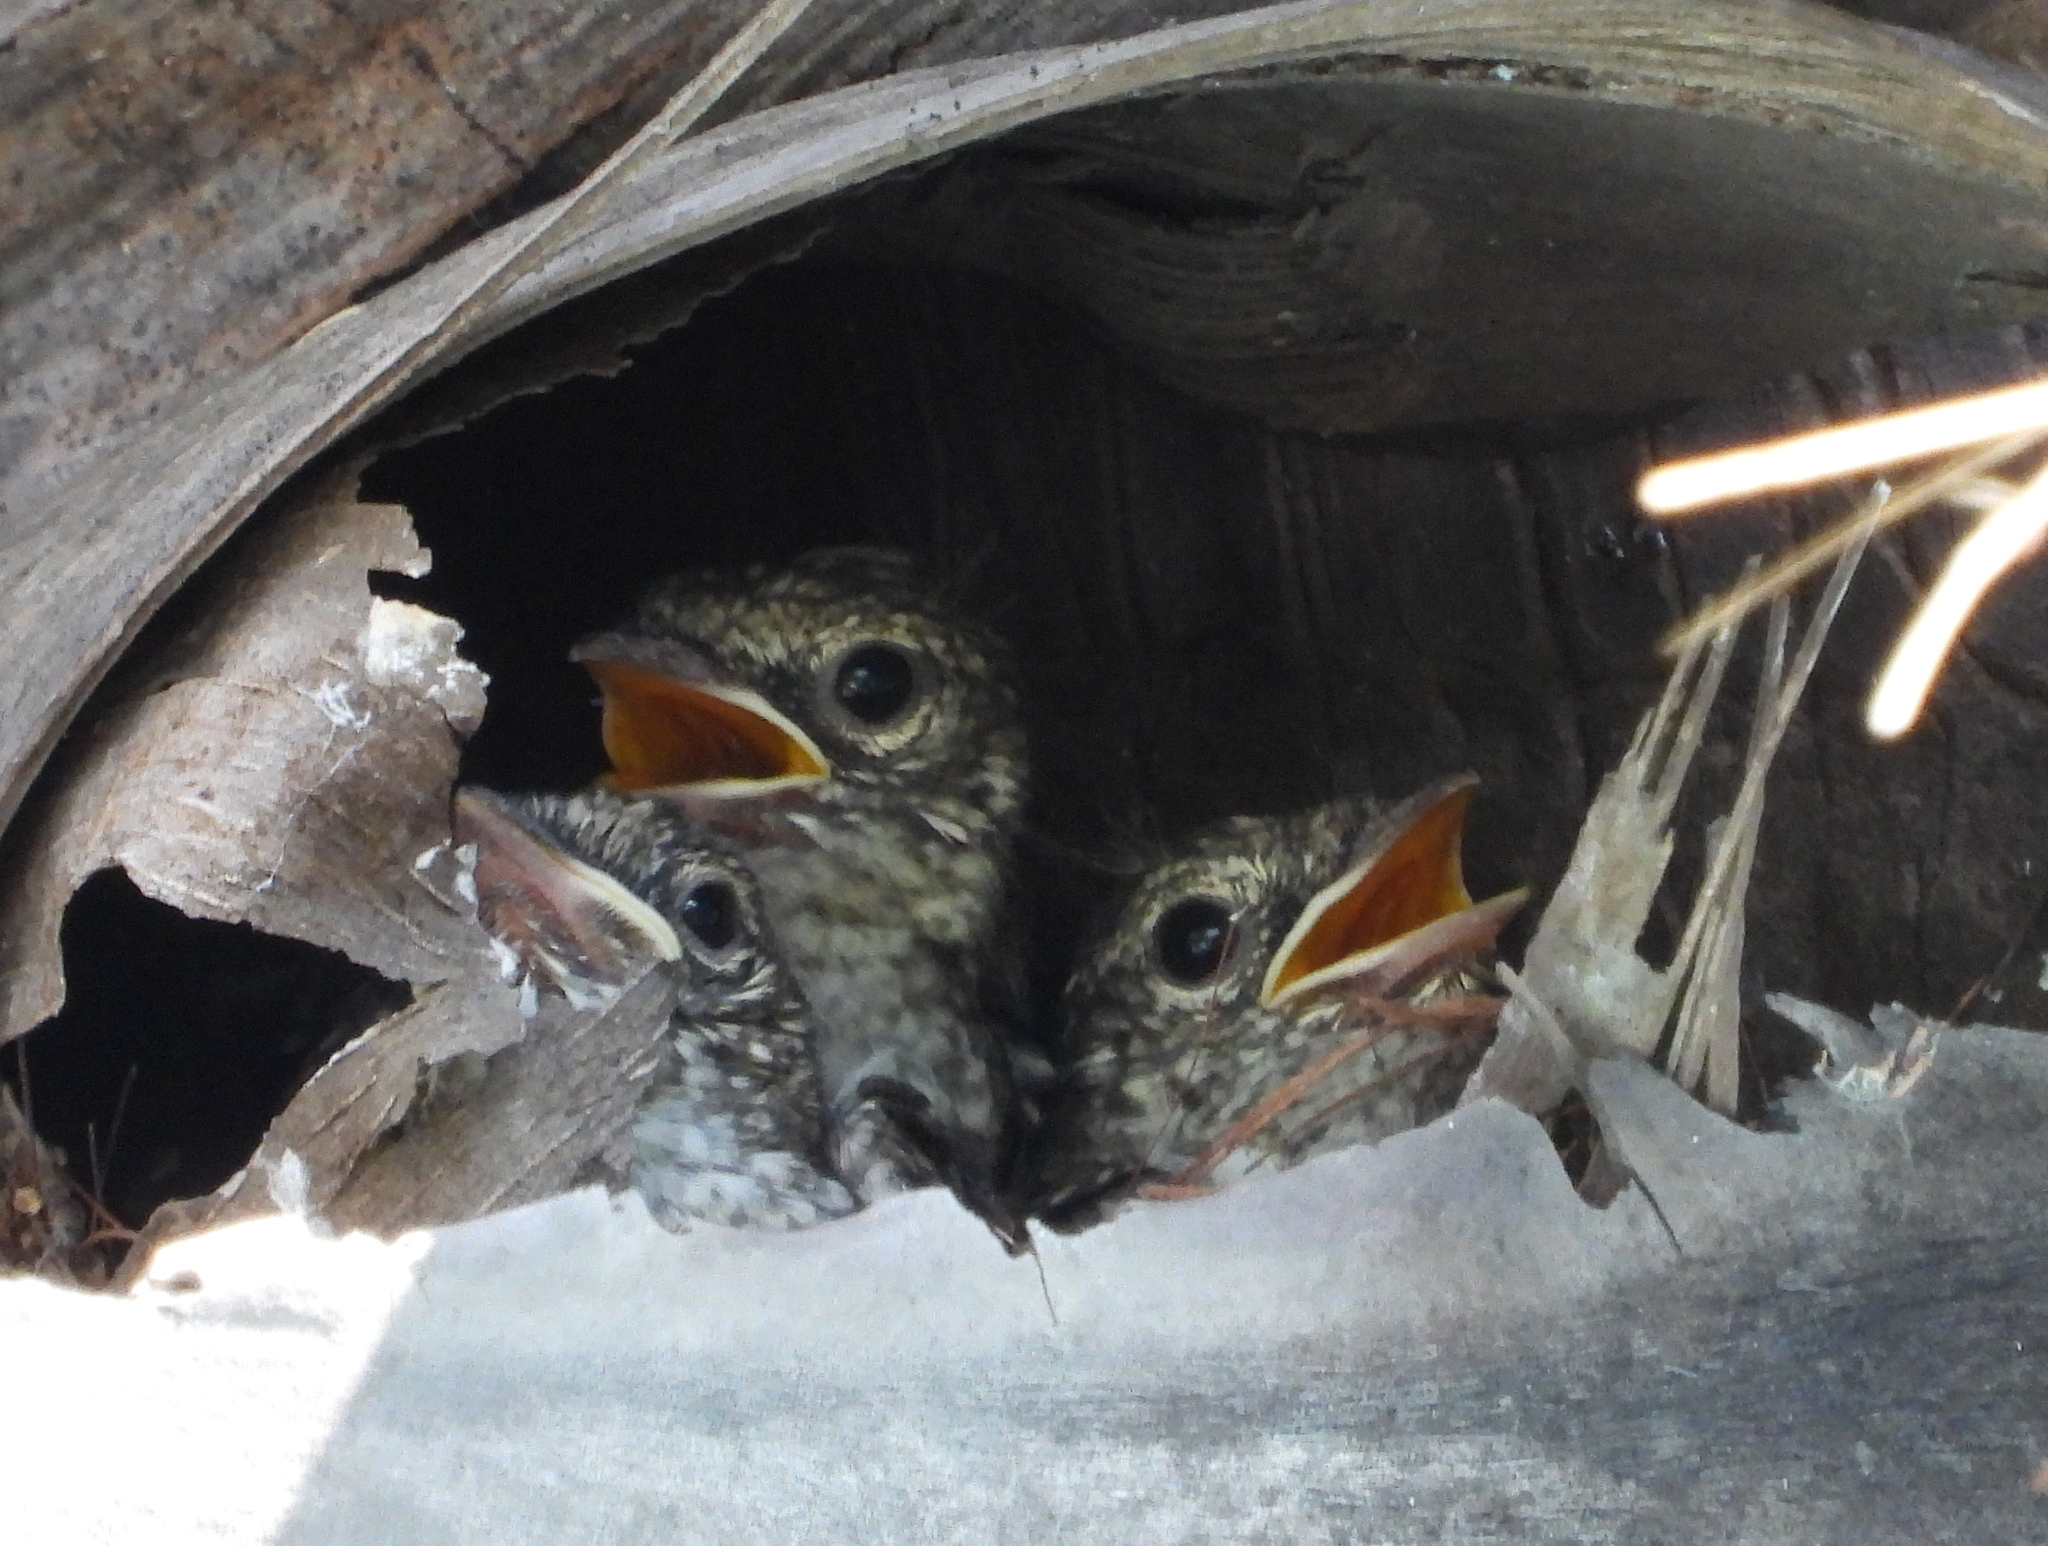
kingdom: Animalia
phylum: Chordata
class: Aves
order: Passeriformes
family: Muscicapidae
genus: Muscicapa
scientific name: Muscicapa caerulescens
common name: Ashy flycatcher
